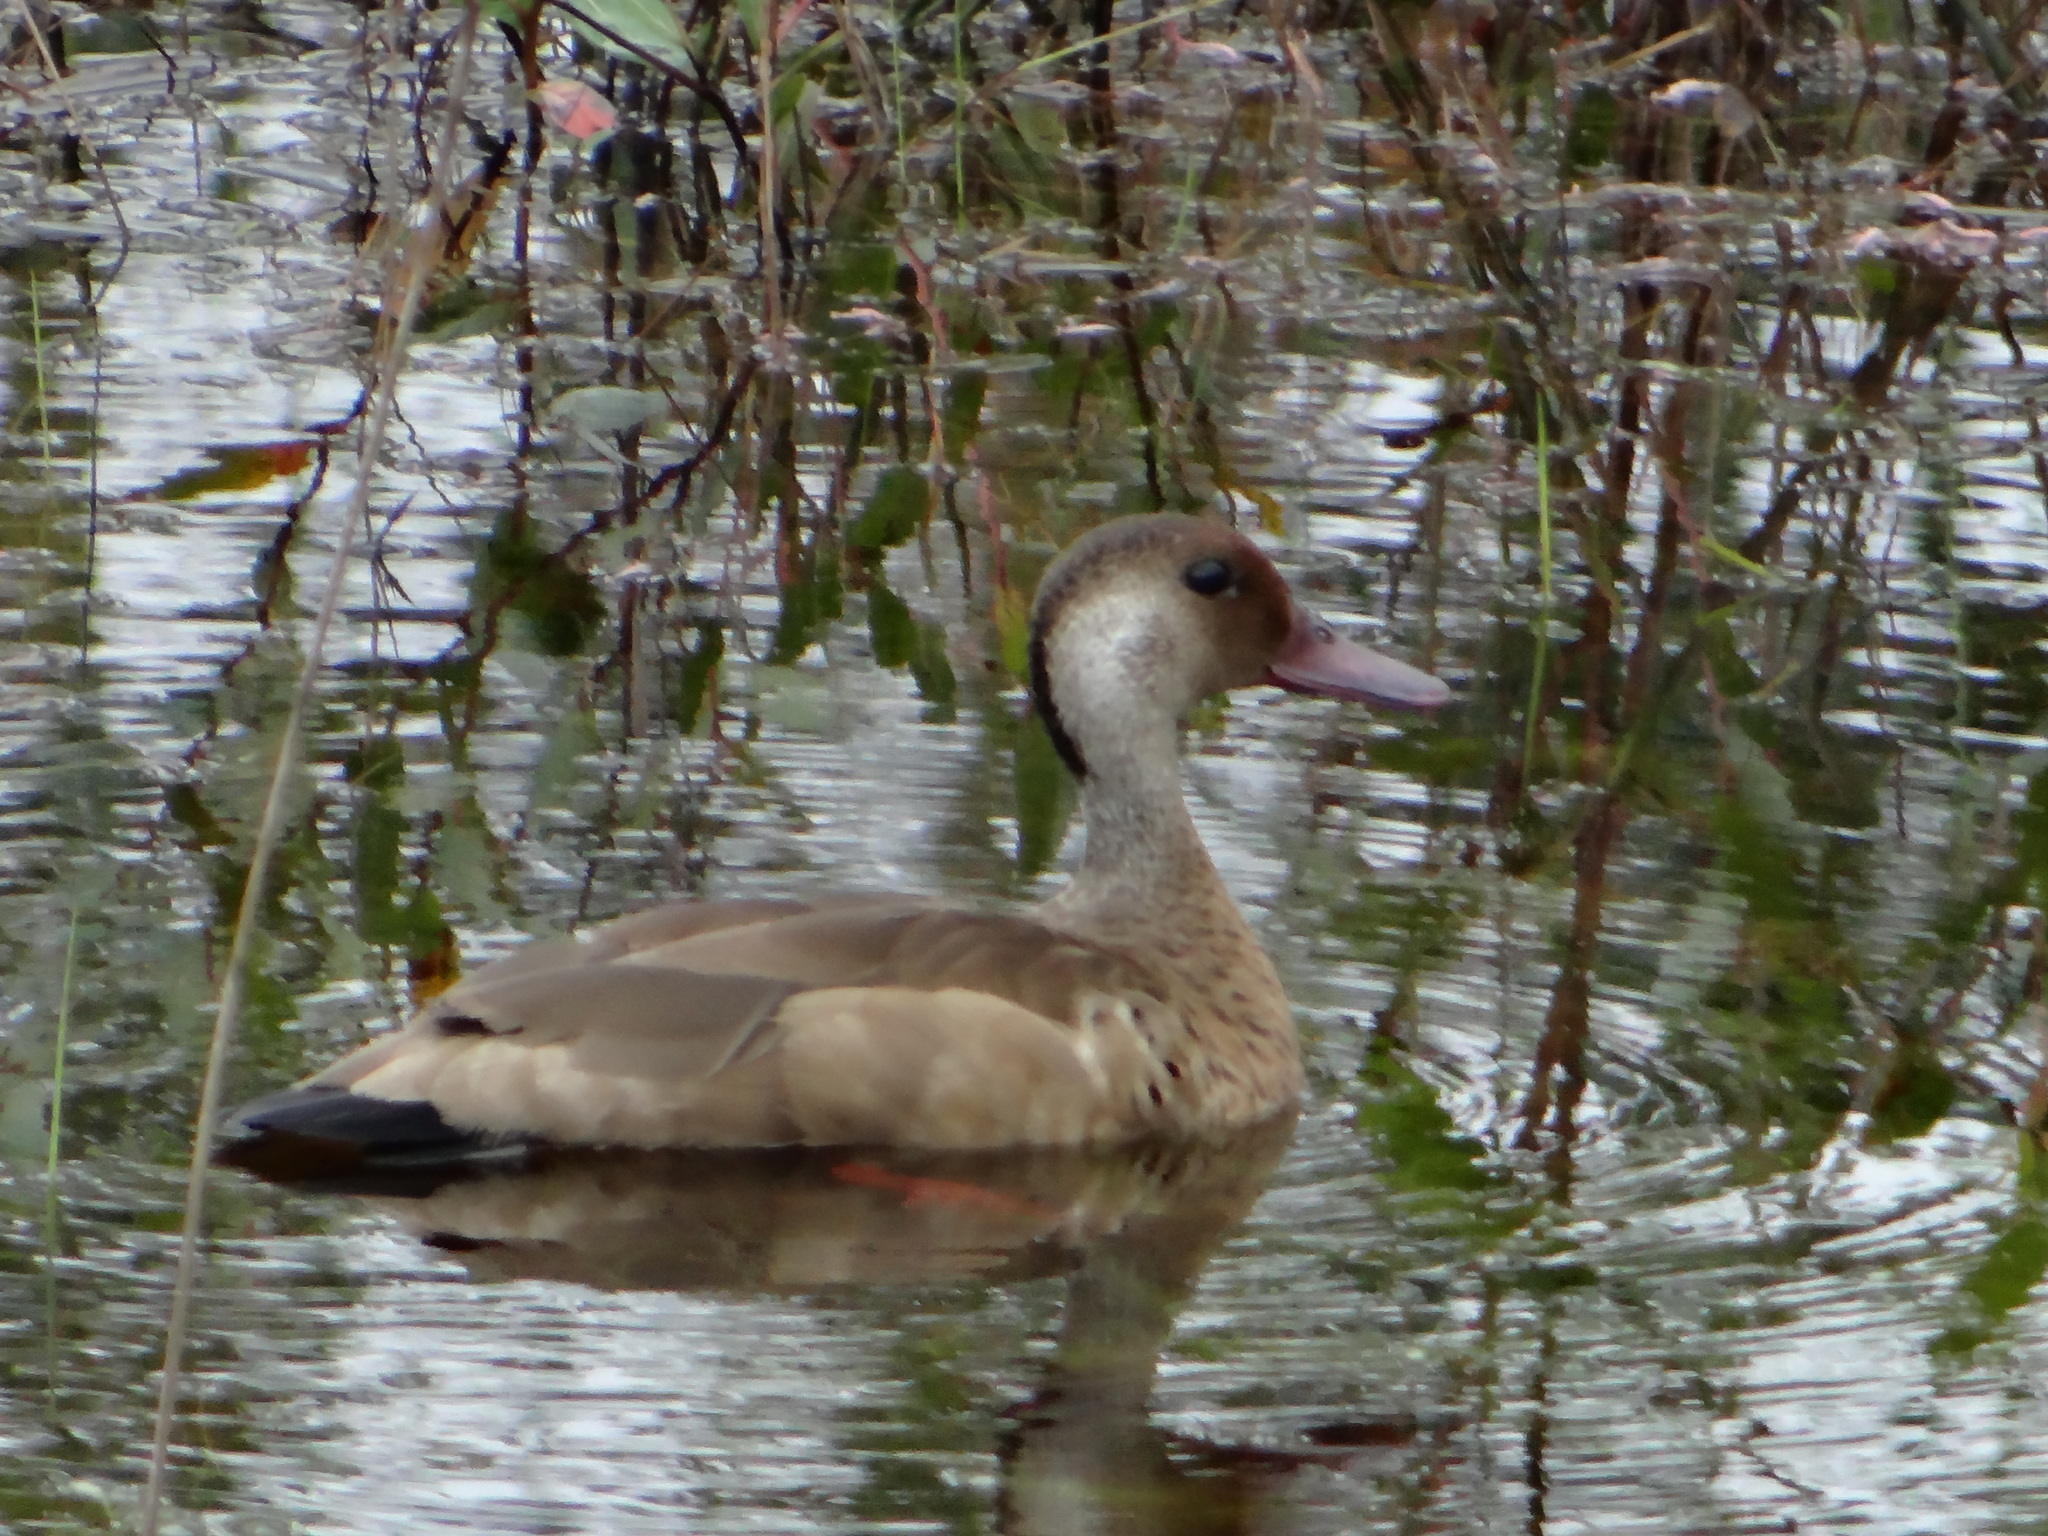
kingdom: Animalia
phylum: Chordata
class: Aves
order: Anseriformes
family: Anatidae
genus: Amazonetta
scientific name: Amazonetta brasiliensis
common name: Brazilian teal
